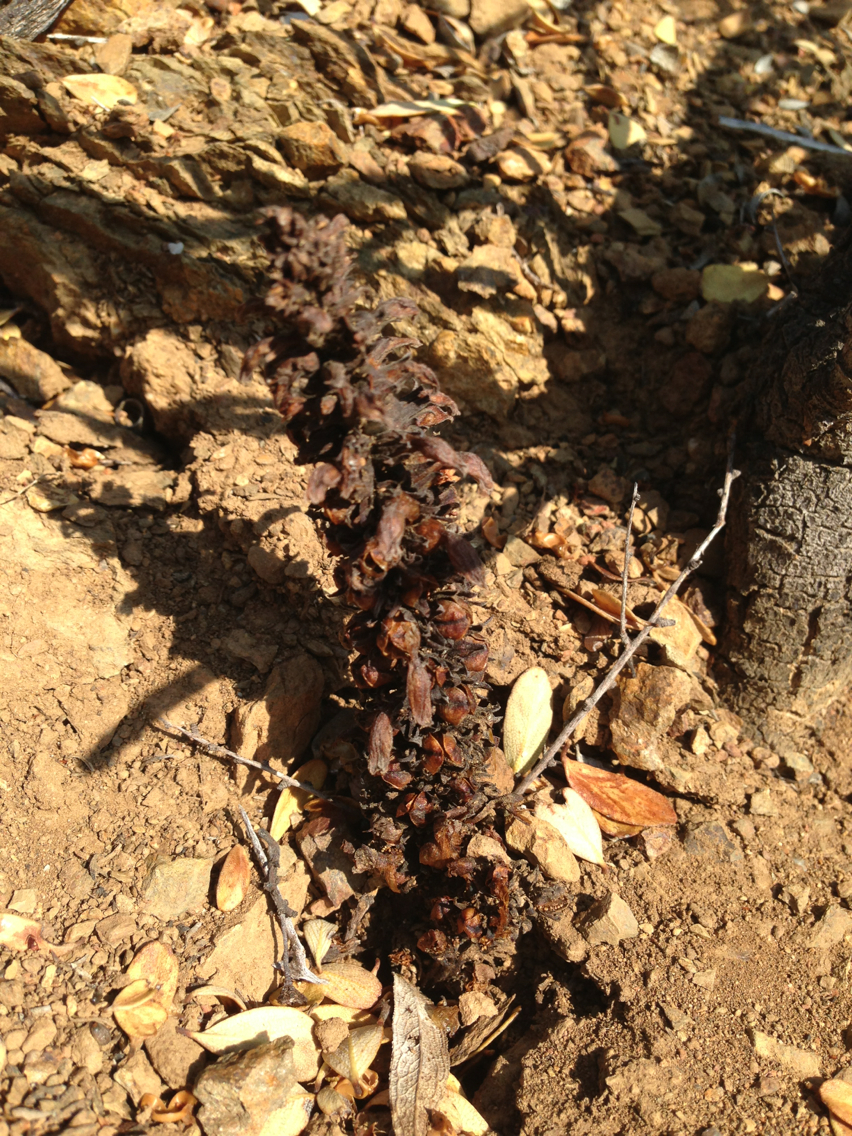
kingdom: Plantae
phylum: Tracheophyta
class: Magnoliopsida
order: Lamiales
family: Orobanchaceae
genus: Aphyllon
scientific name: Aphyllon tuberosum
